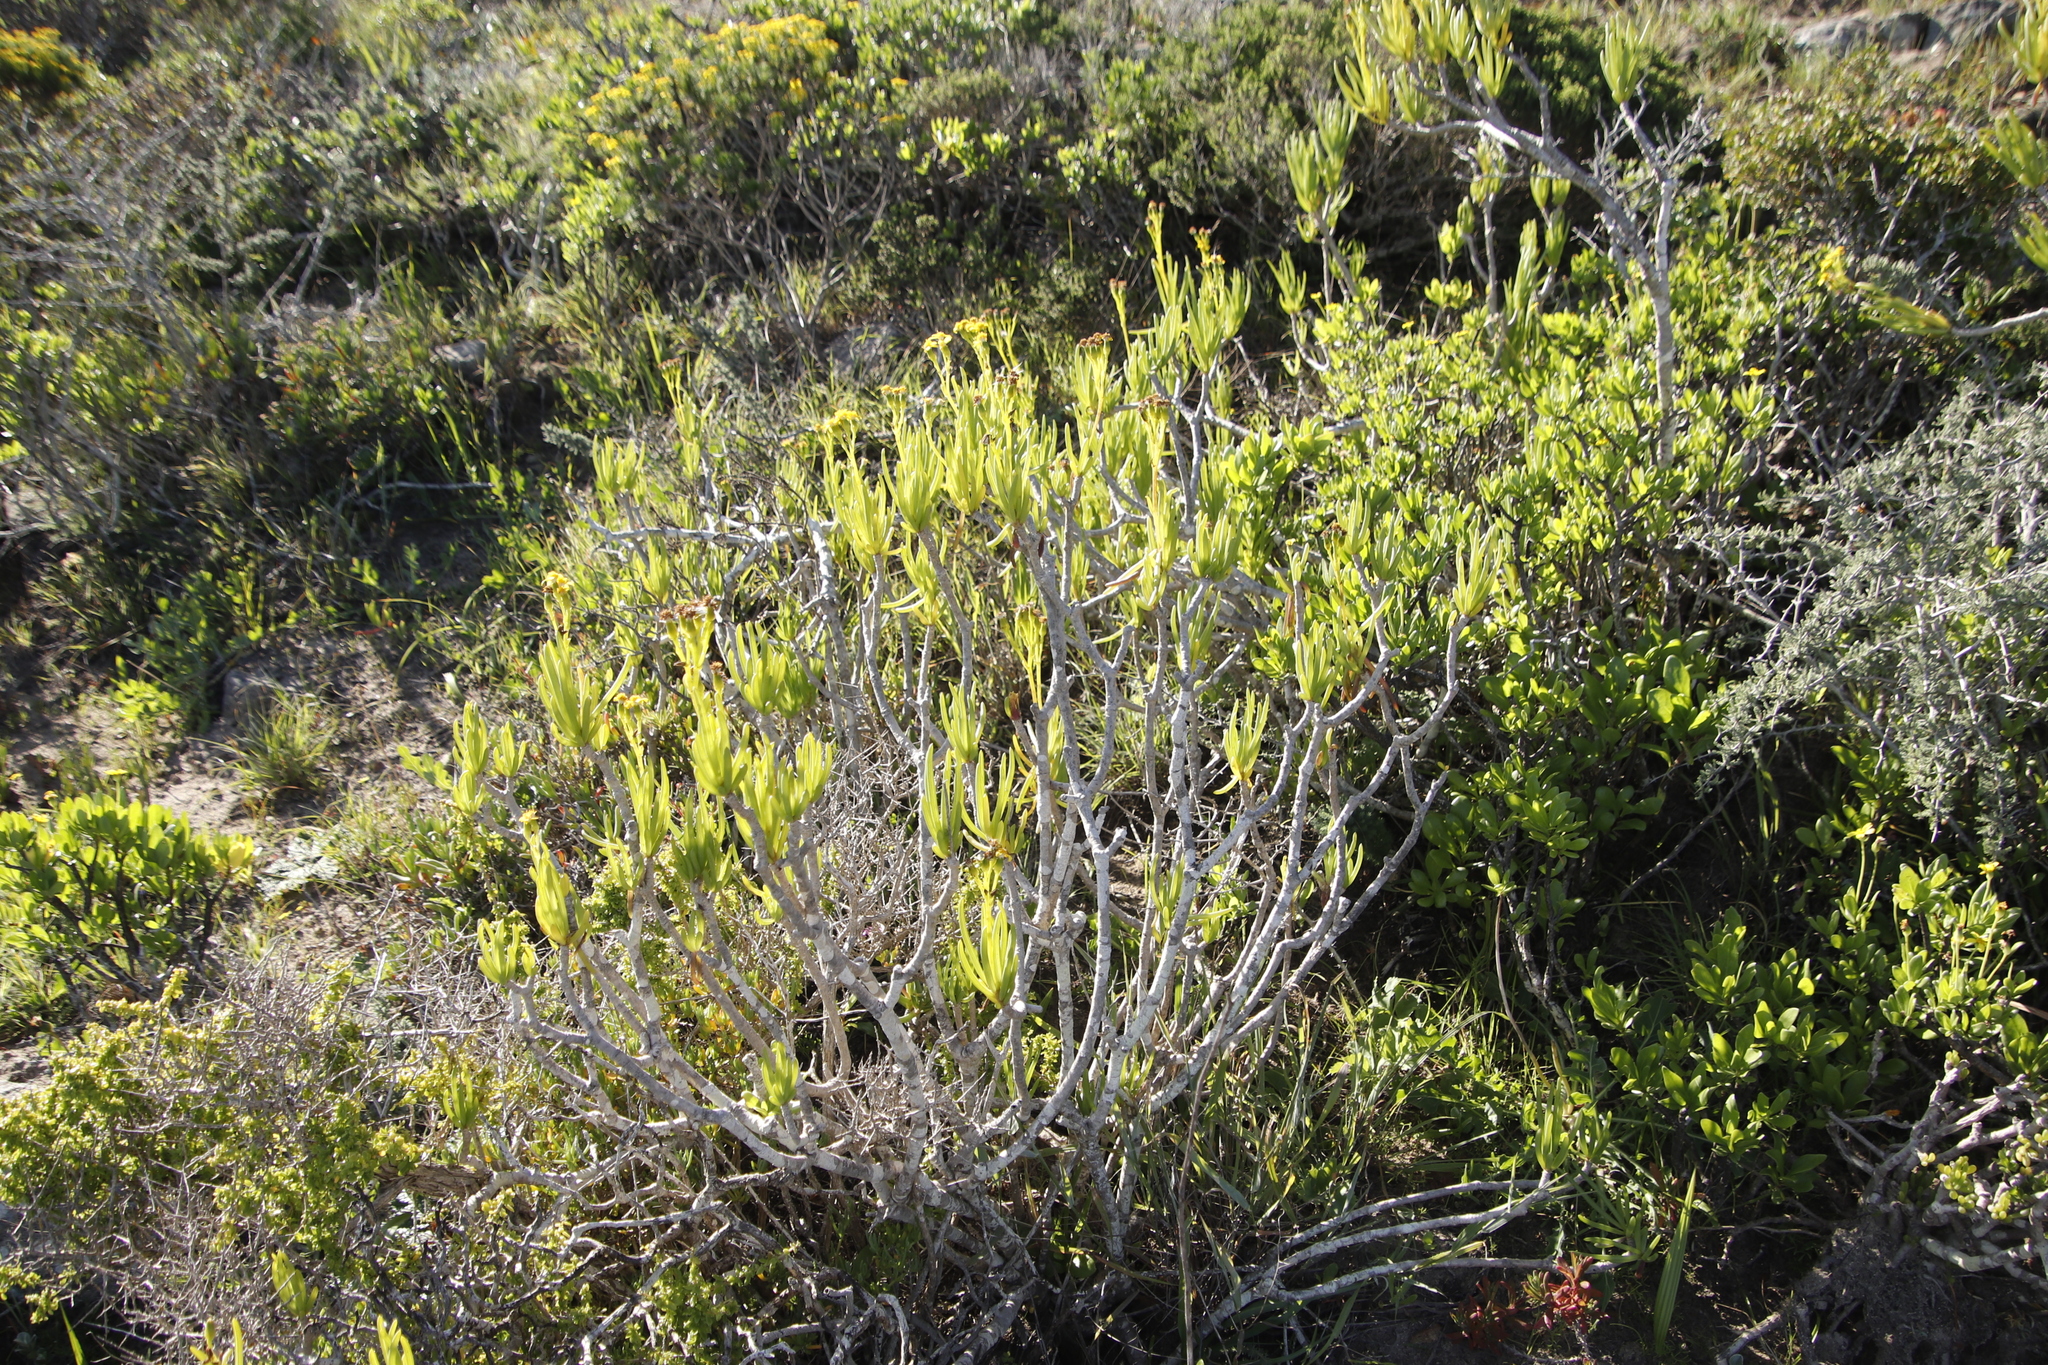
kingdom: Plantae
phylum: Tracheophyta
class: Magnoliopsida
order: Asterales
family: Asteraceae
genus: Curio
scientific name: Curio corymbifer
